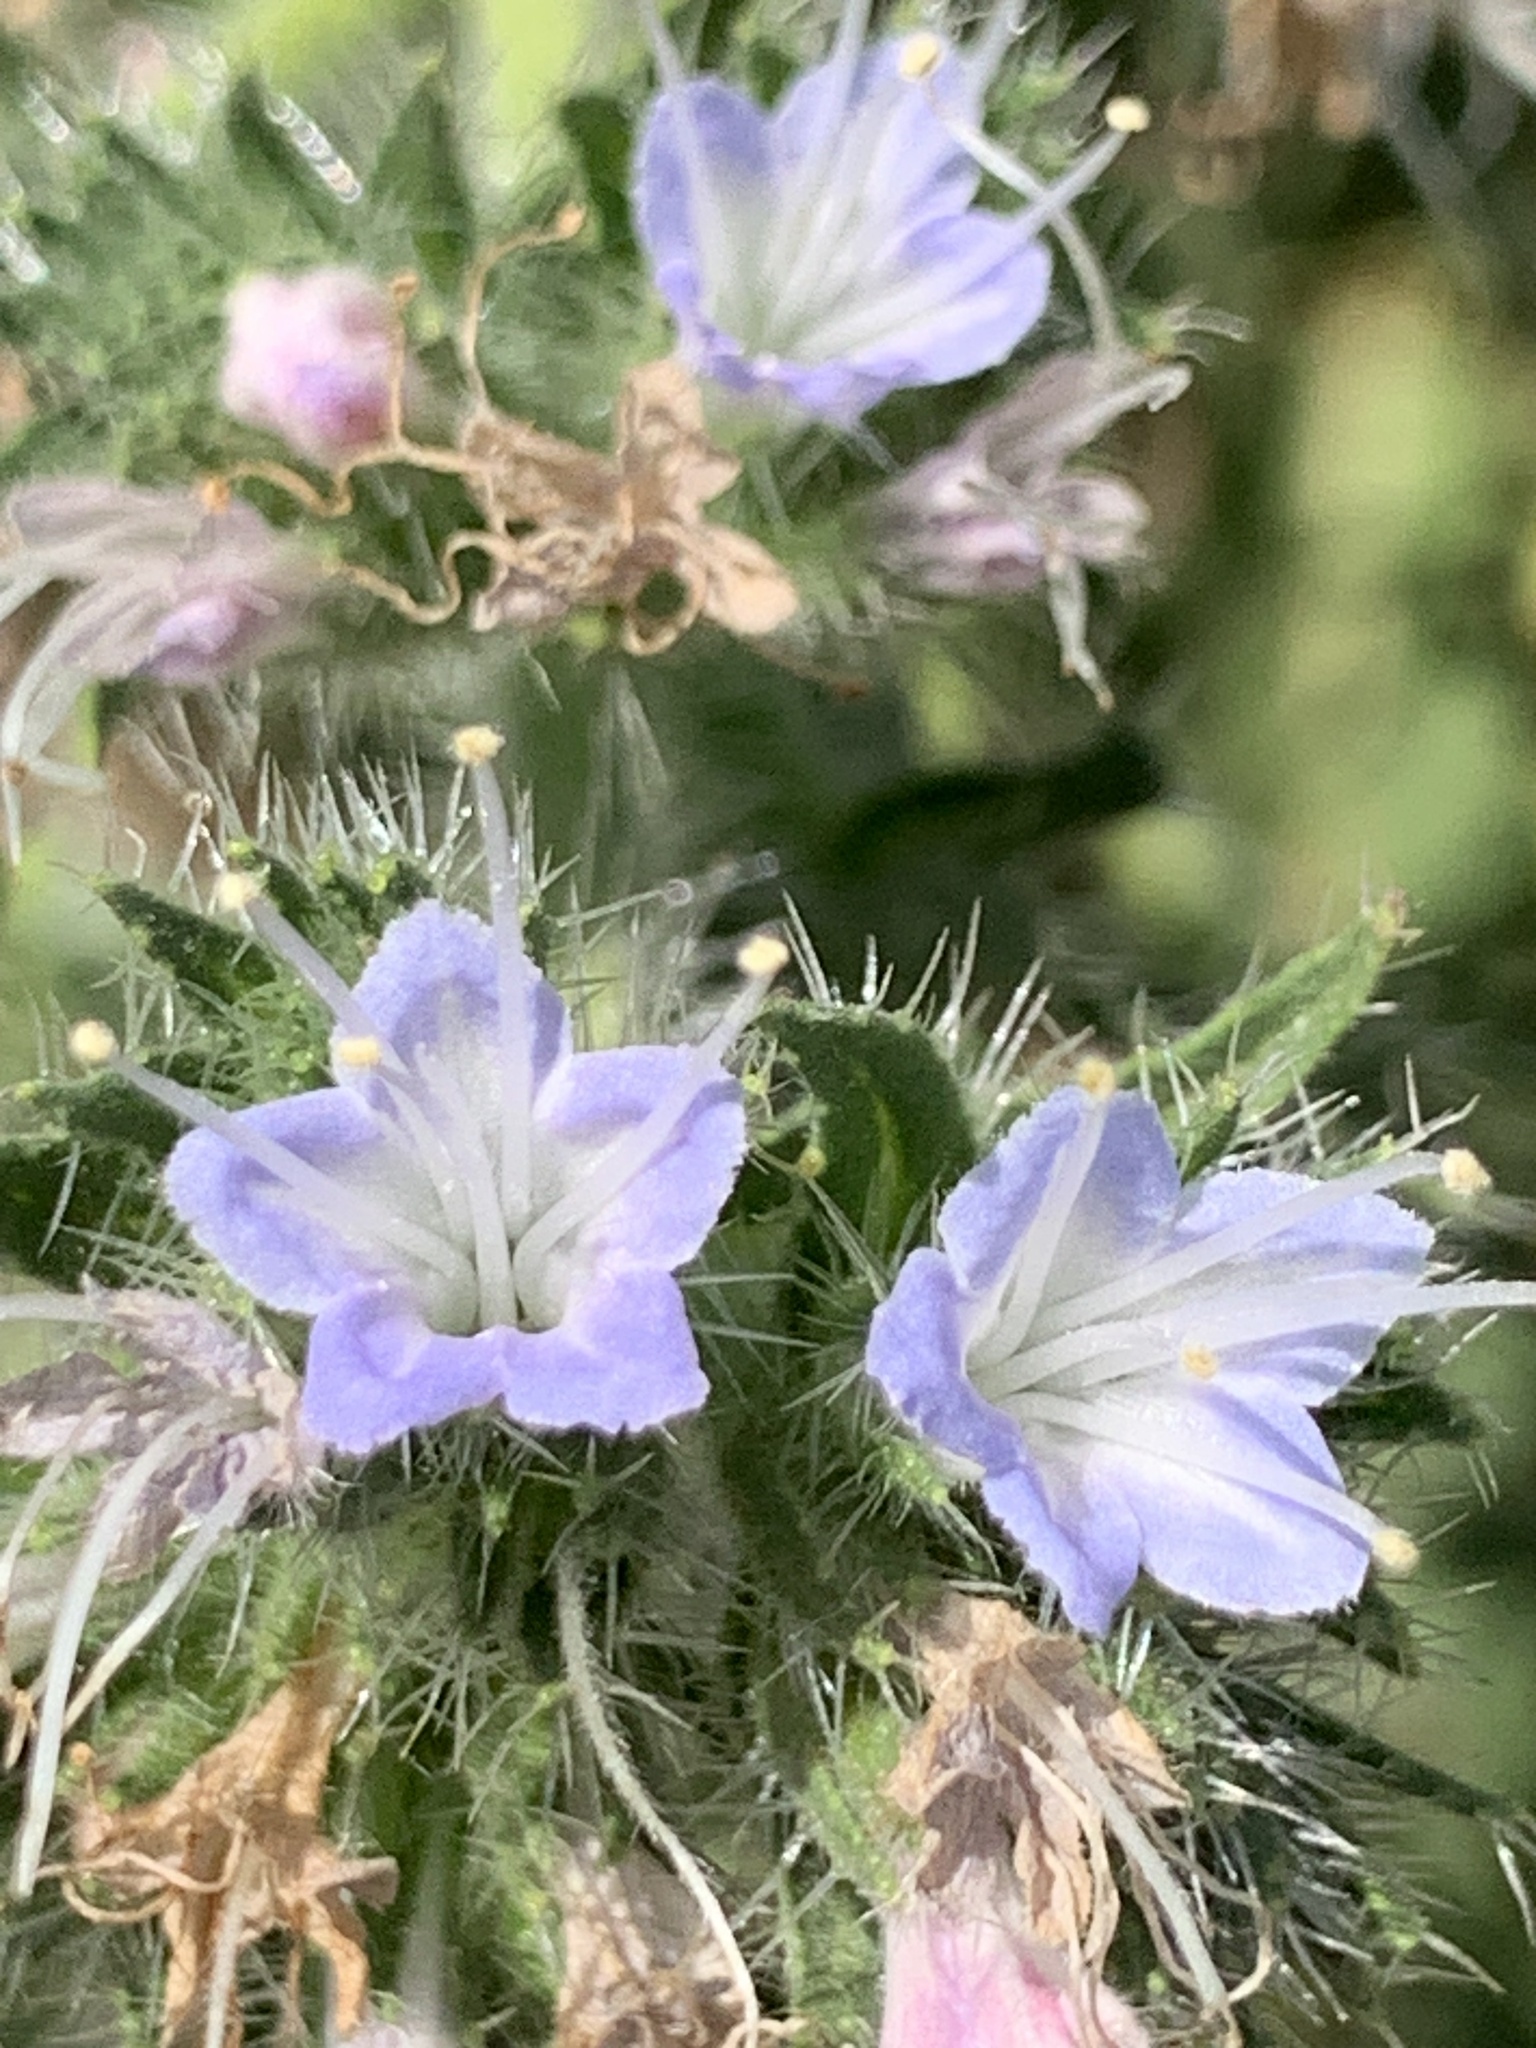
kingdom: Plantae
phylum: Tracheophyta
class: Magnoliopsida
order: Boraginales
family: Boraginaceae
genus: Echium
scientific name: Echium italicum
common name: Italian viper's bugloss
